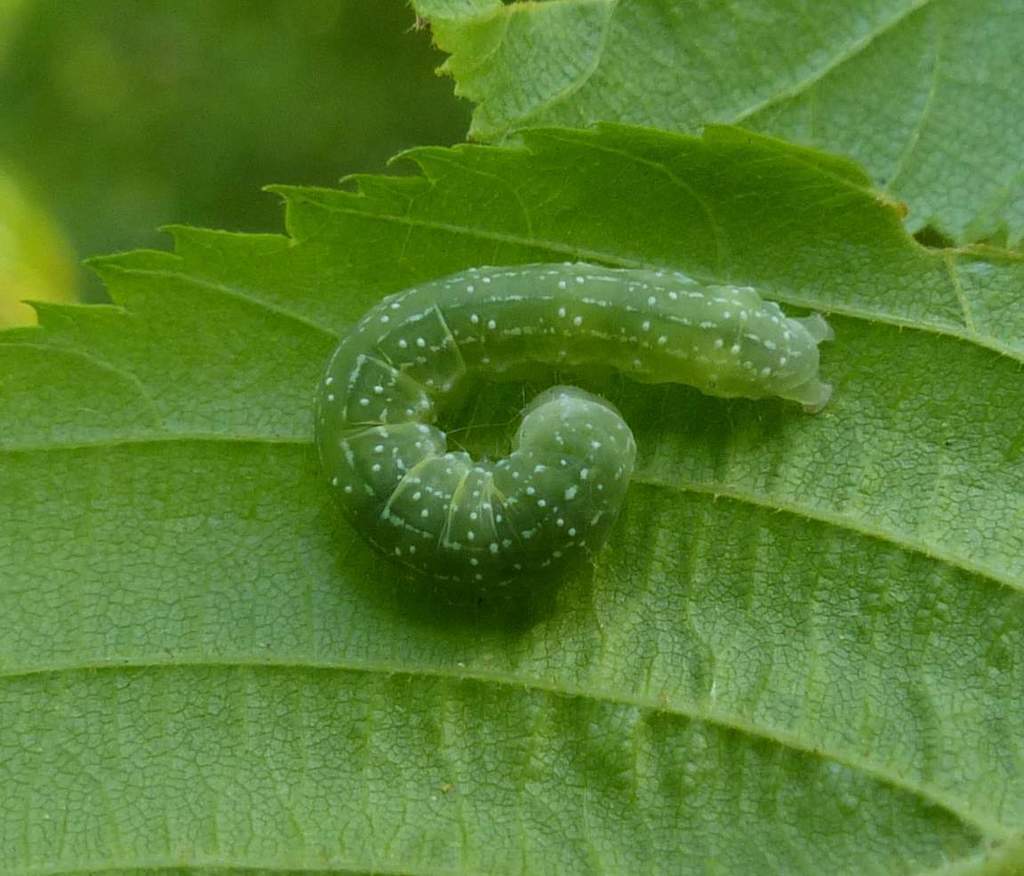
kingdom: Animalia
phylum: Arthropoda
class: Insecta
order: Lepidoptera
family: Noctuidae
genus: Balsa
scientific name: Balsa labecula
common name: White-blotched balsa moth
